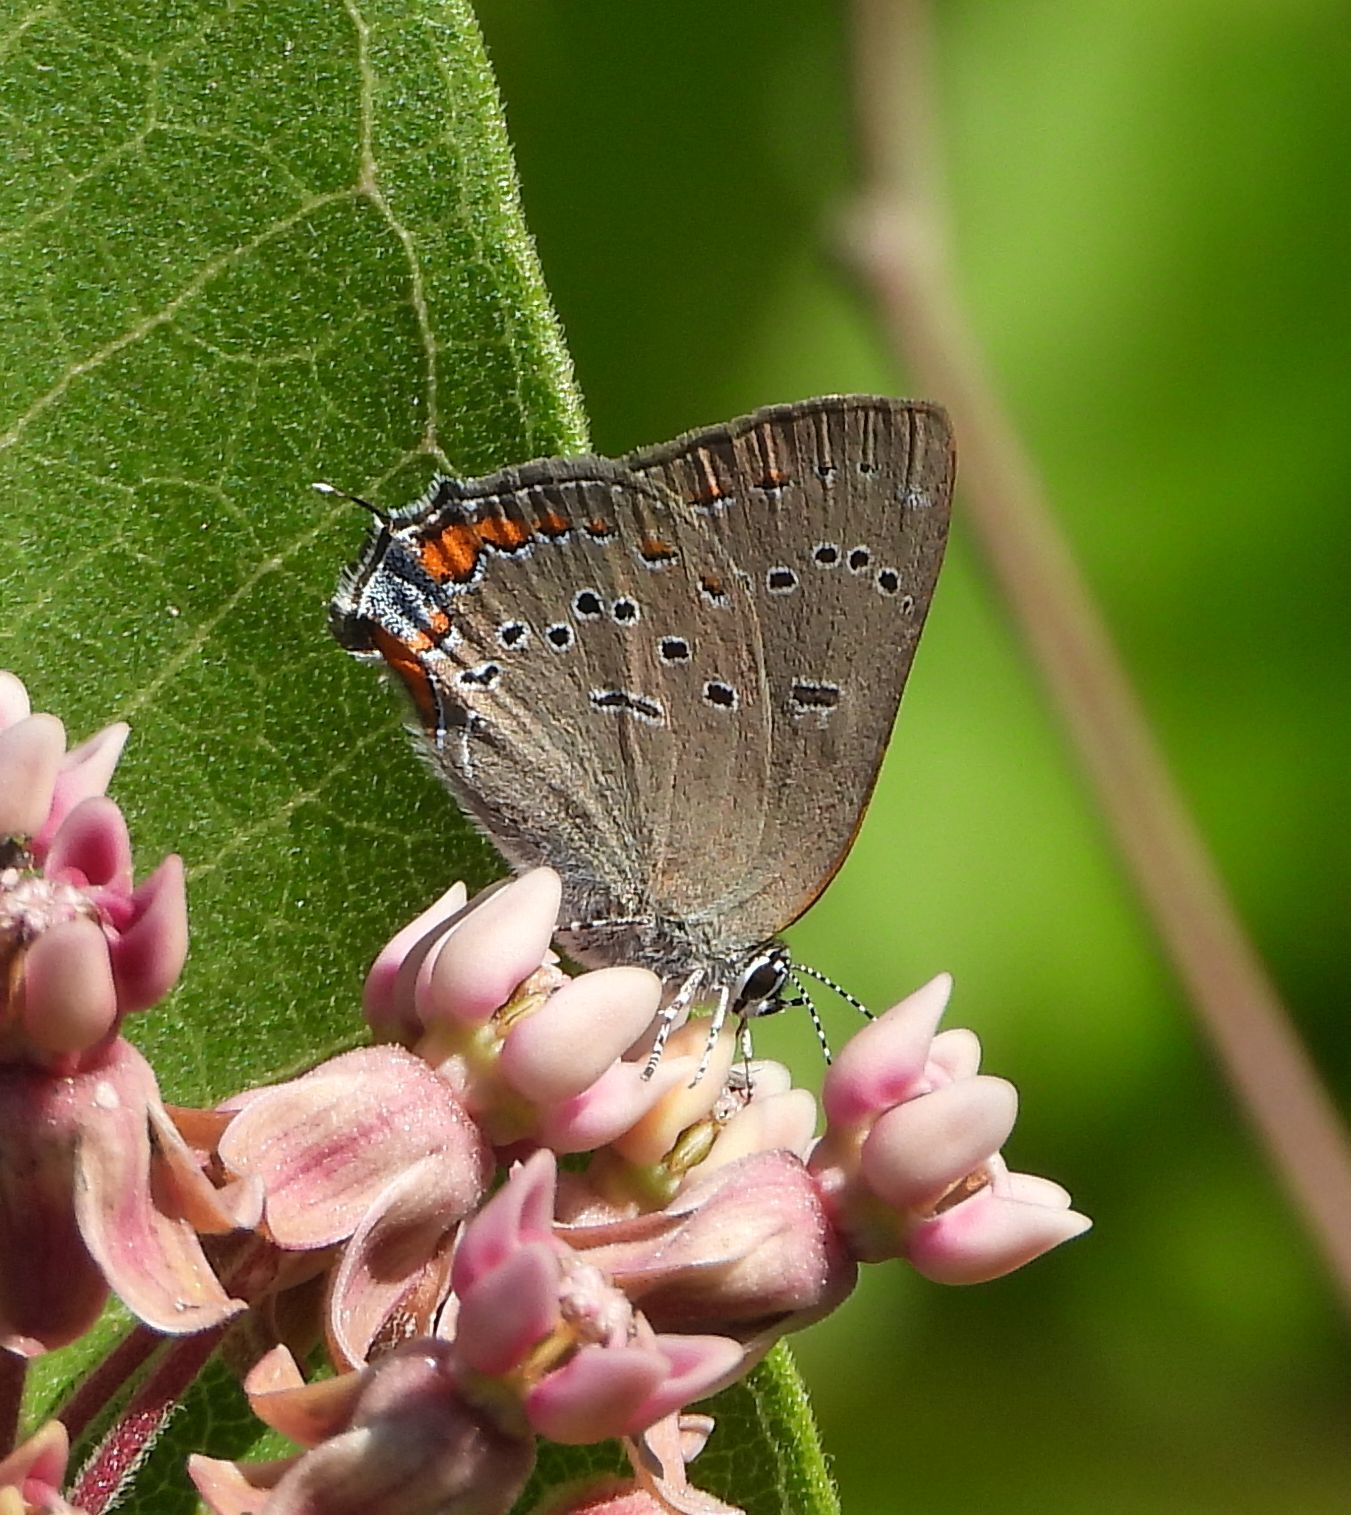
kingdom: Animalia
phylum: Arthropoda
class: Insecta
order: Lepidoptera
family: Lycaenidae
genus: Strymon
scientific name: Strymon acadica
